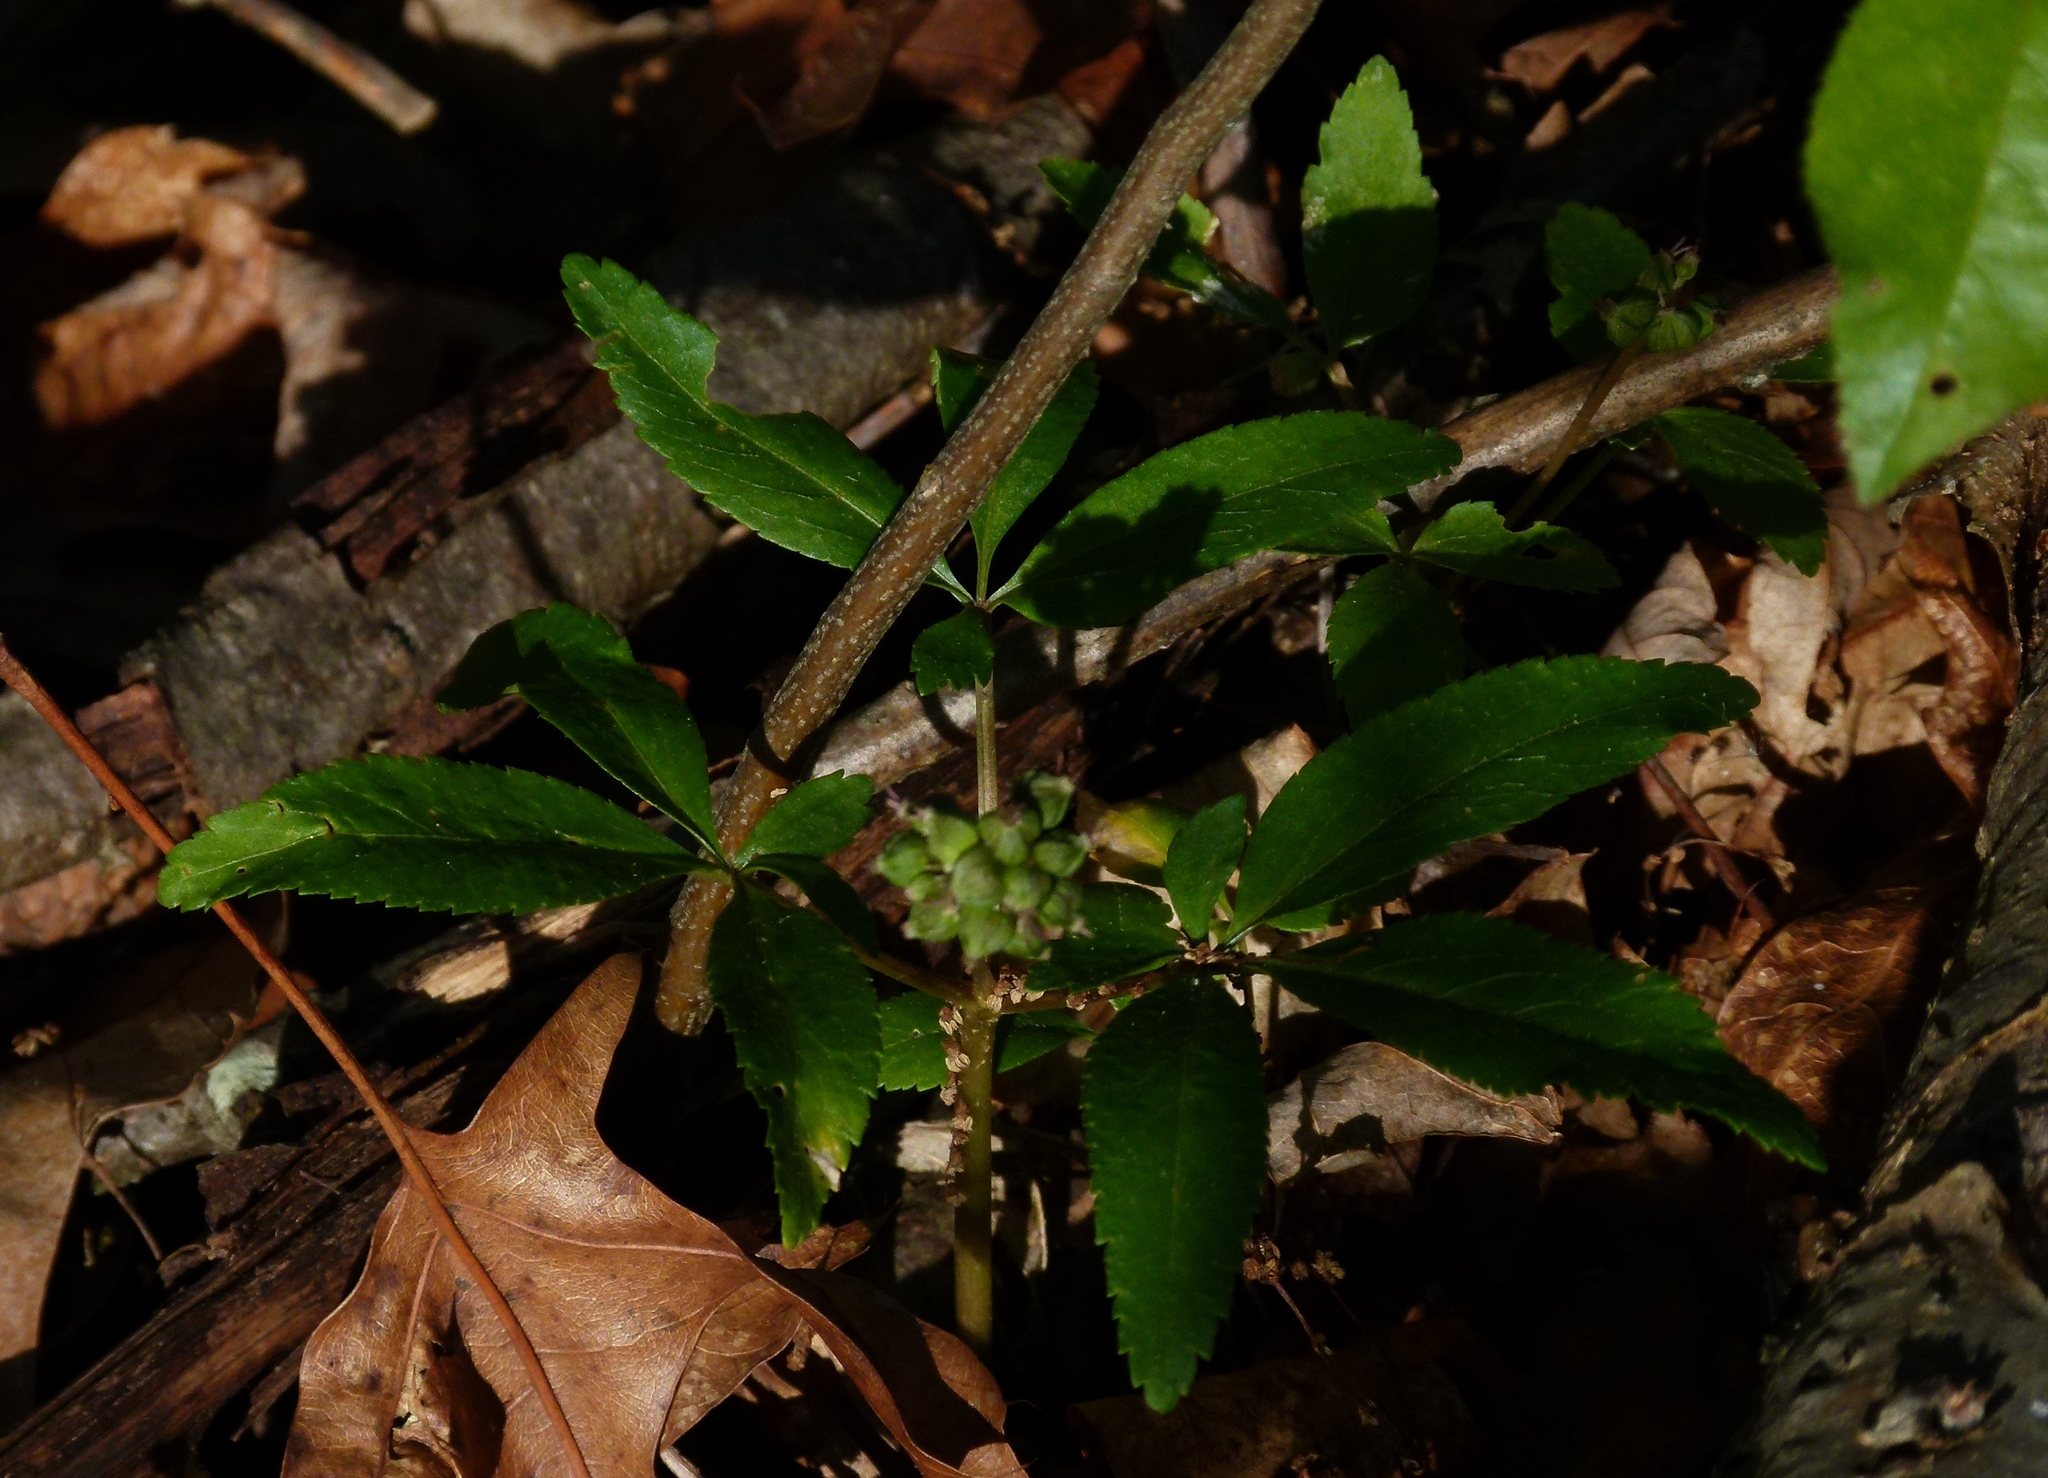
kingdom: Plantae
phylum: Tracheophyta
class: Magnoliopsida
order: Apiales
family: Araliaceae
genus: Panax
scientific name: Panax trifolius
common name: Dwarf ginseng
